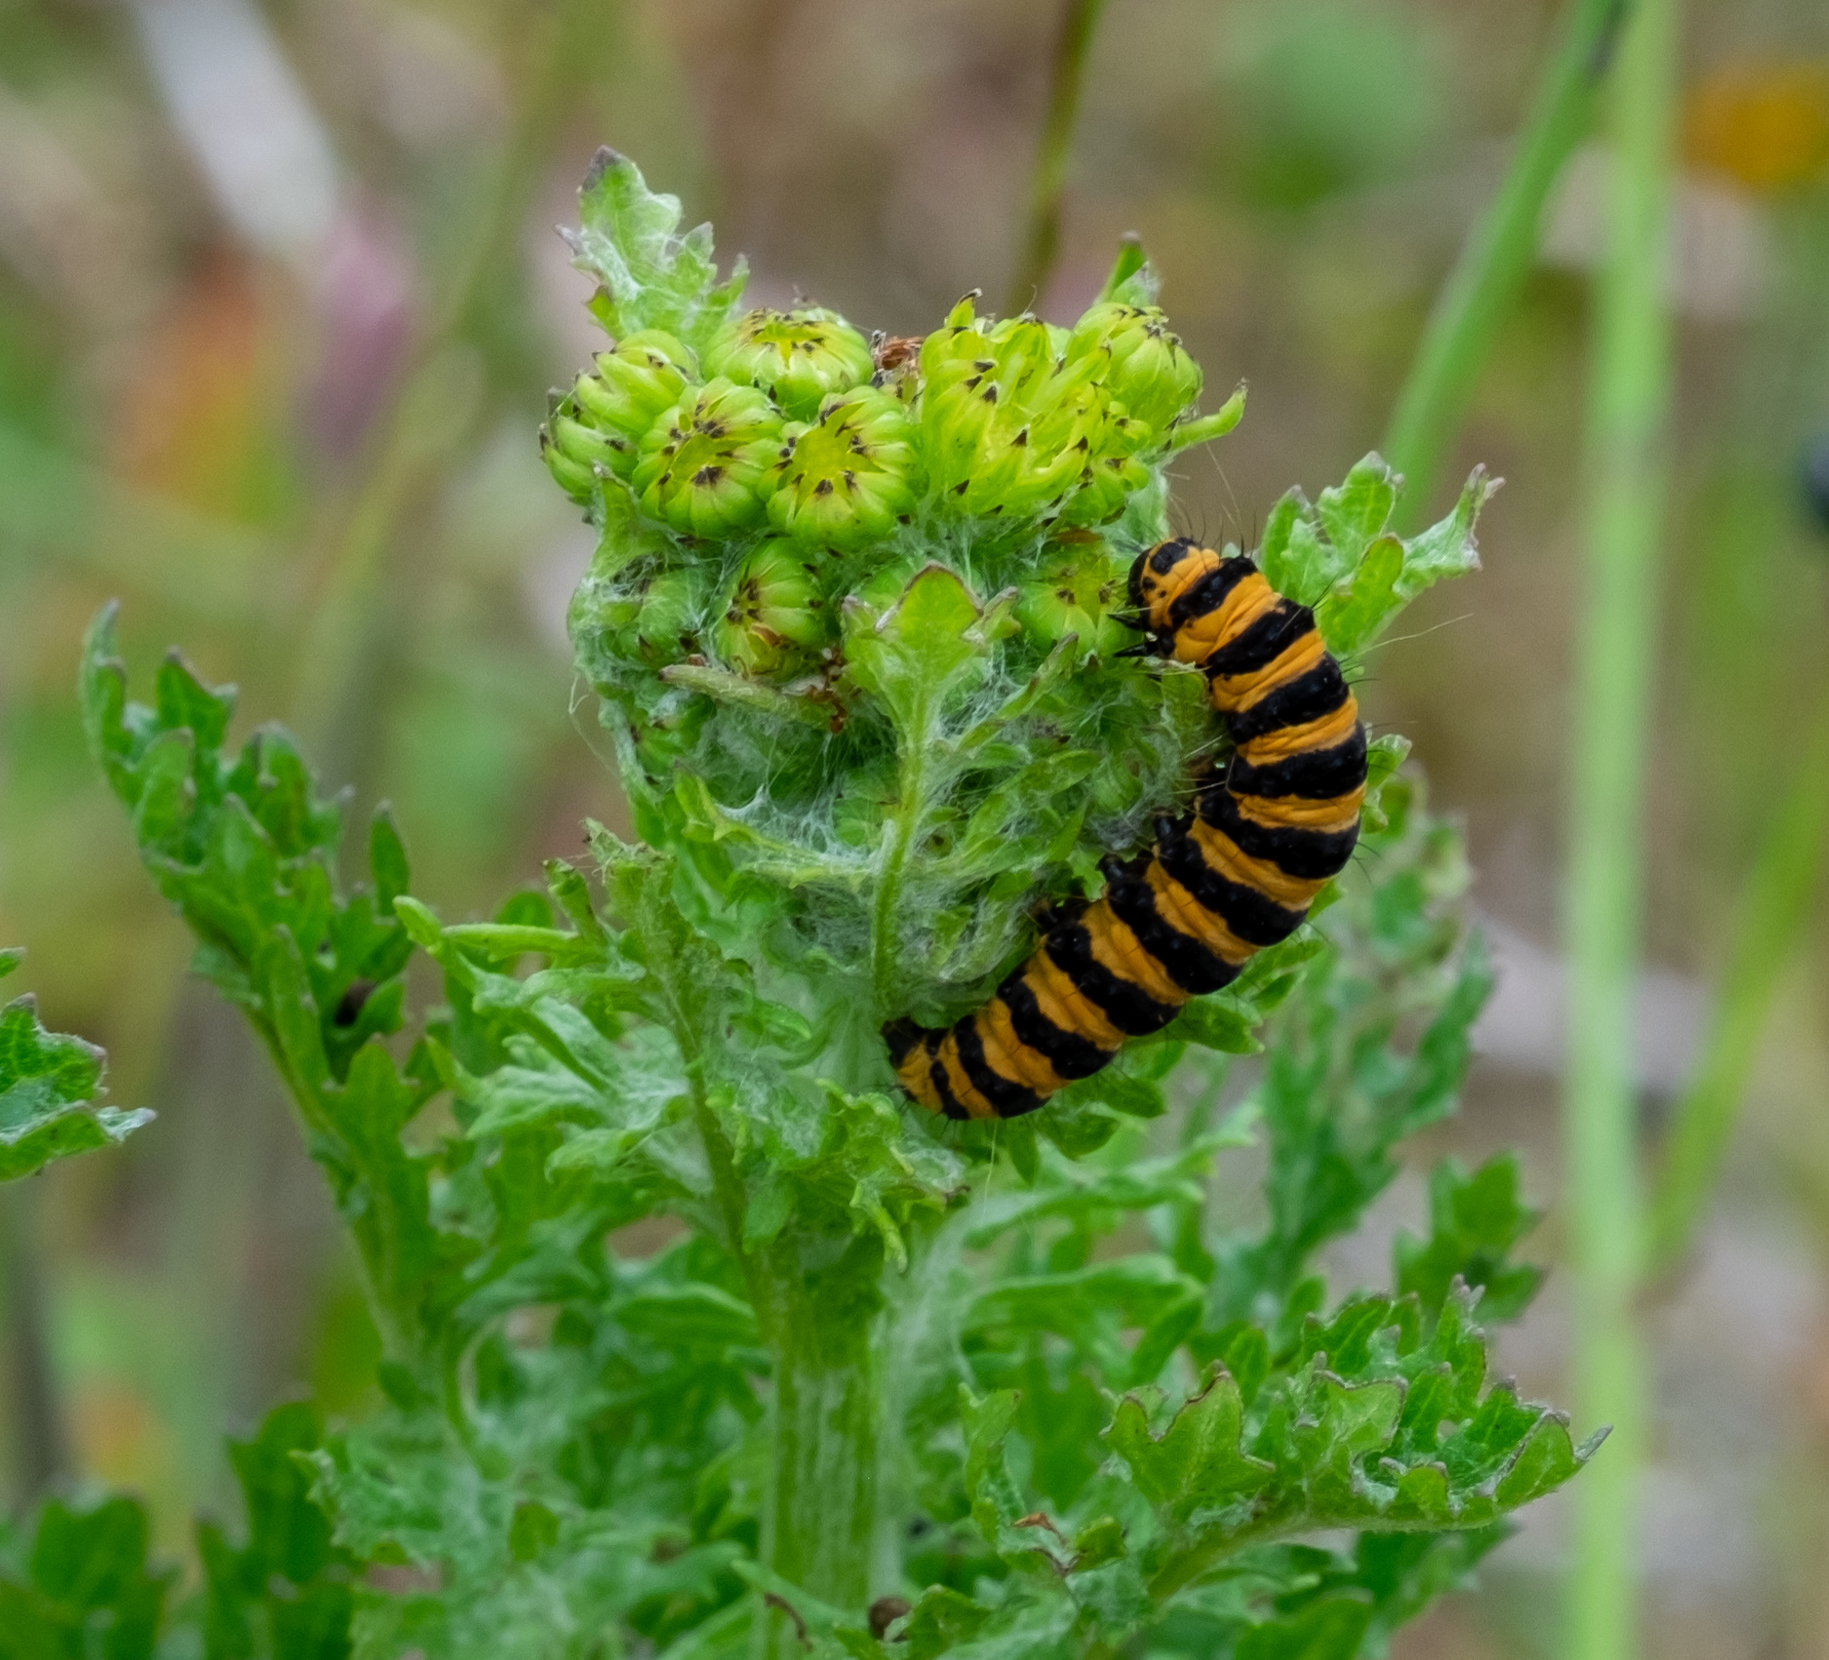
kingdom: Animalia
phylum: Arthropoda
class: Insecta
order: Lepidoptera
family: Erebidae
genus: Tyria
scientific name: Tyria jacobaeae
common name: Cinnabar
